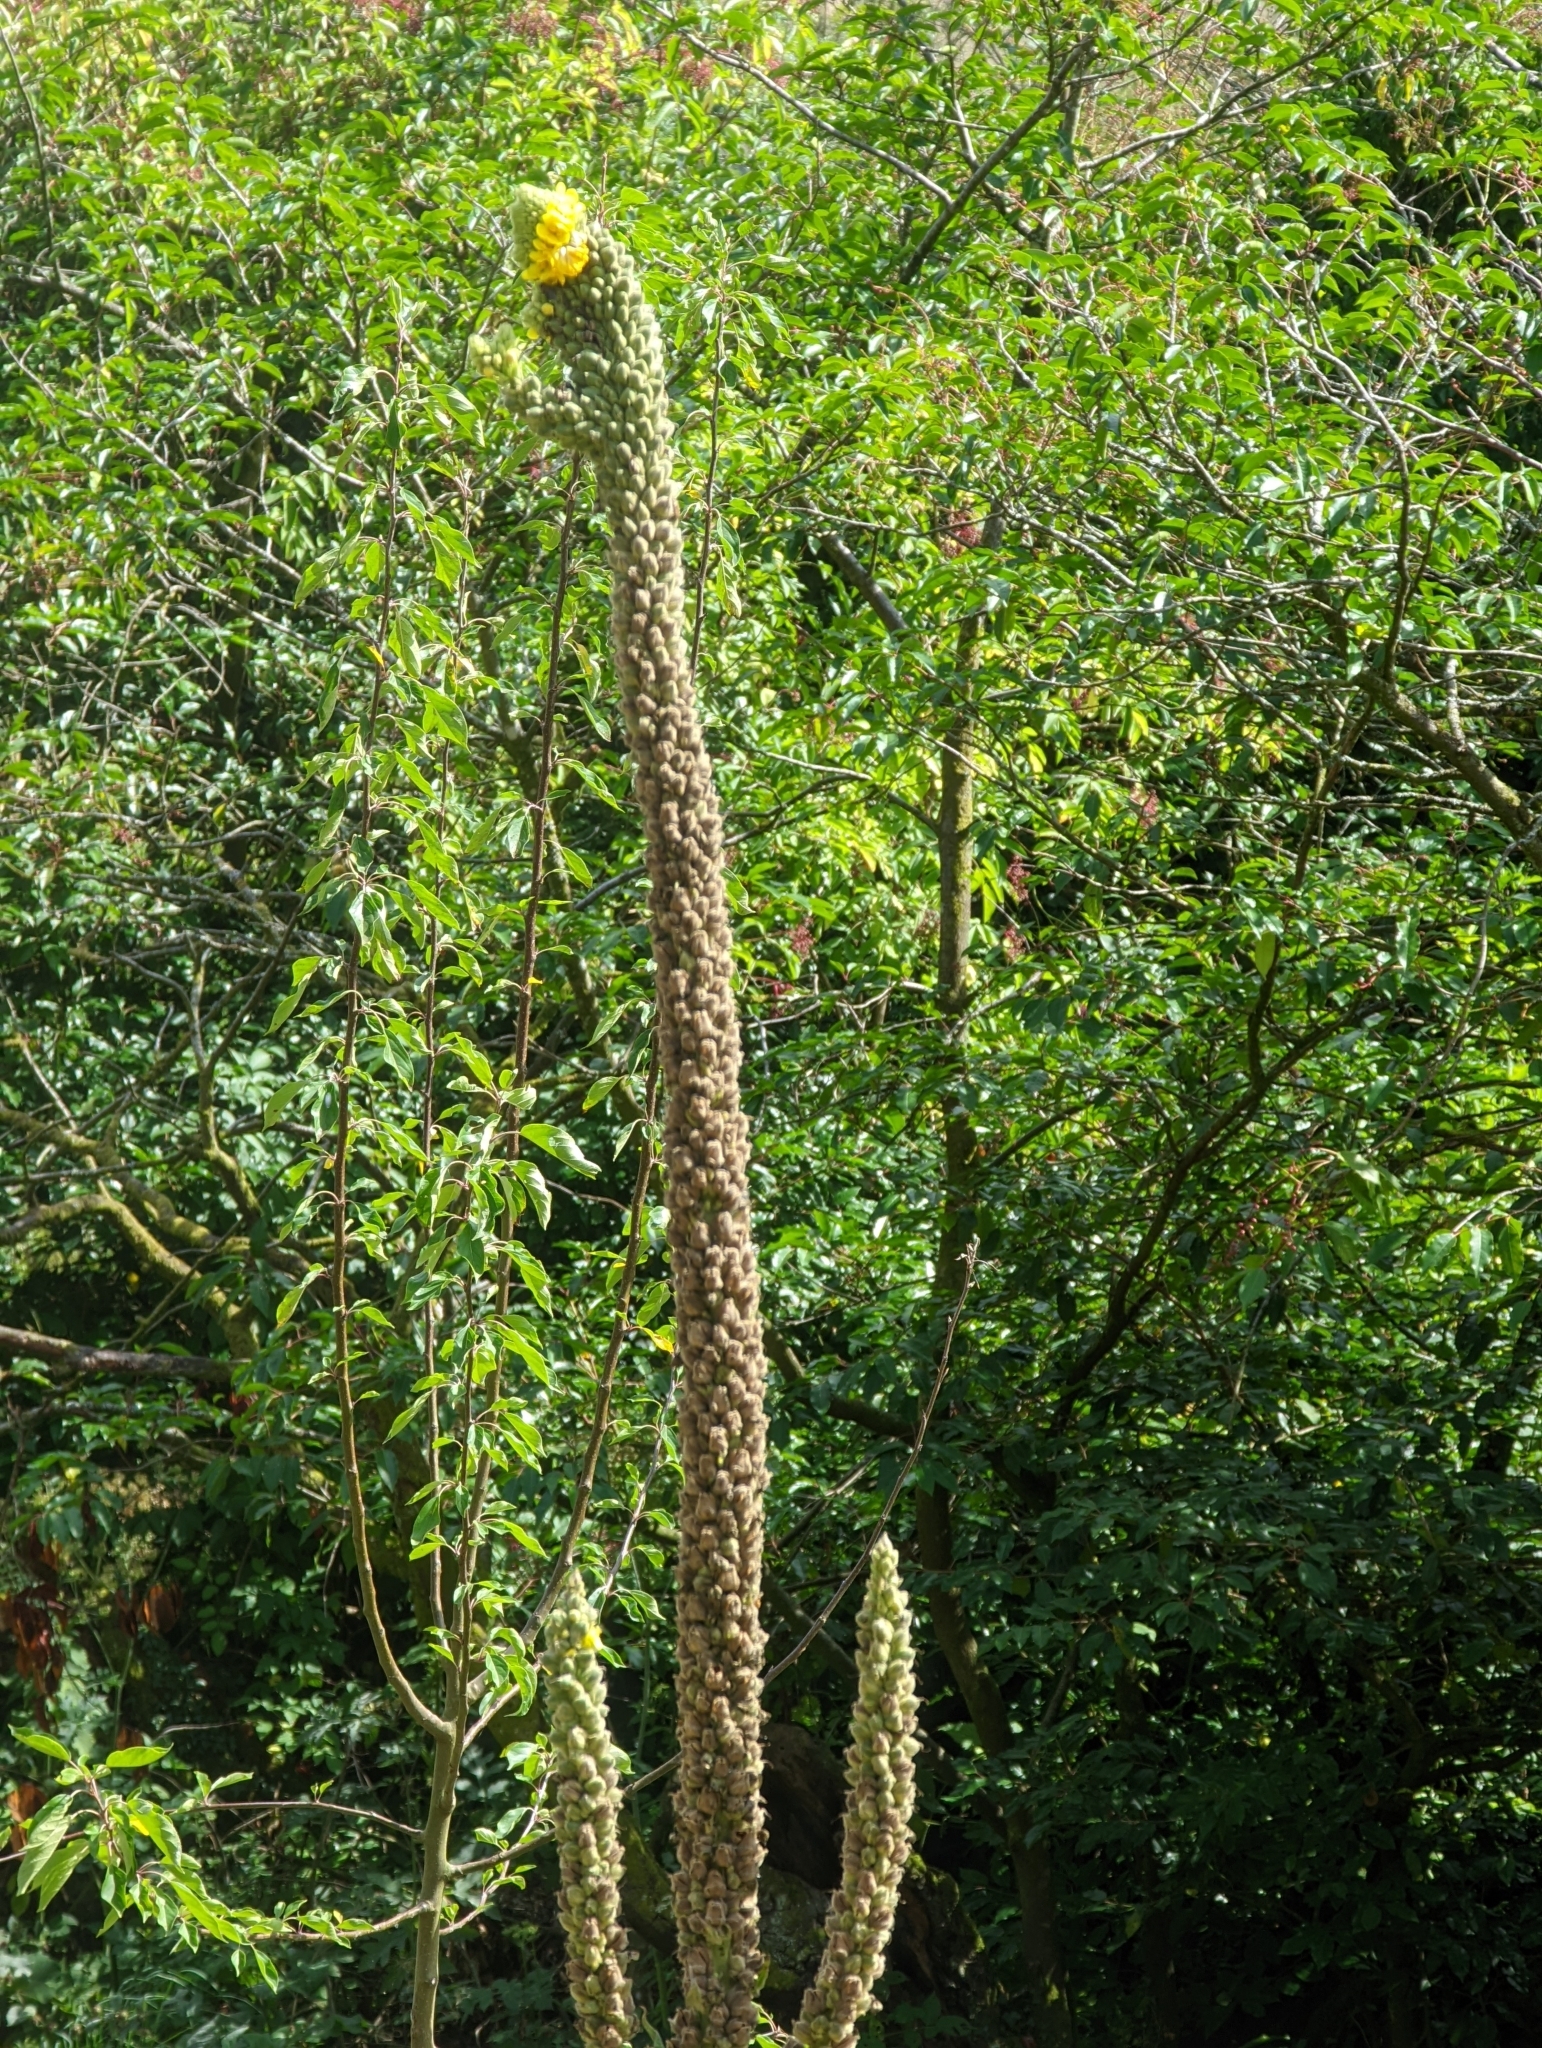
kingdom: Plantae
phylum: Tracheophyta
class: Magnoliopsida
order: Lamiales
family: Scrophulariaceae
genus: Verbascum
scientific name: Verbascum thapsus
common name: Common mullein
